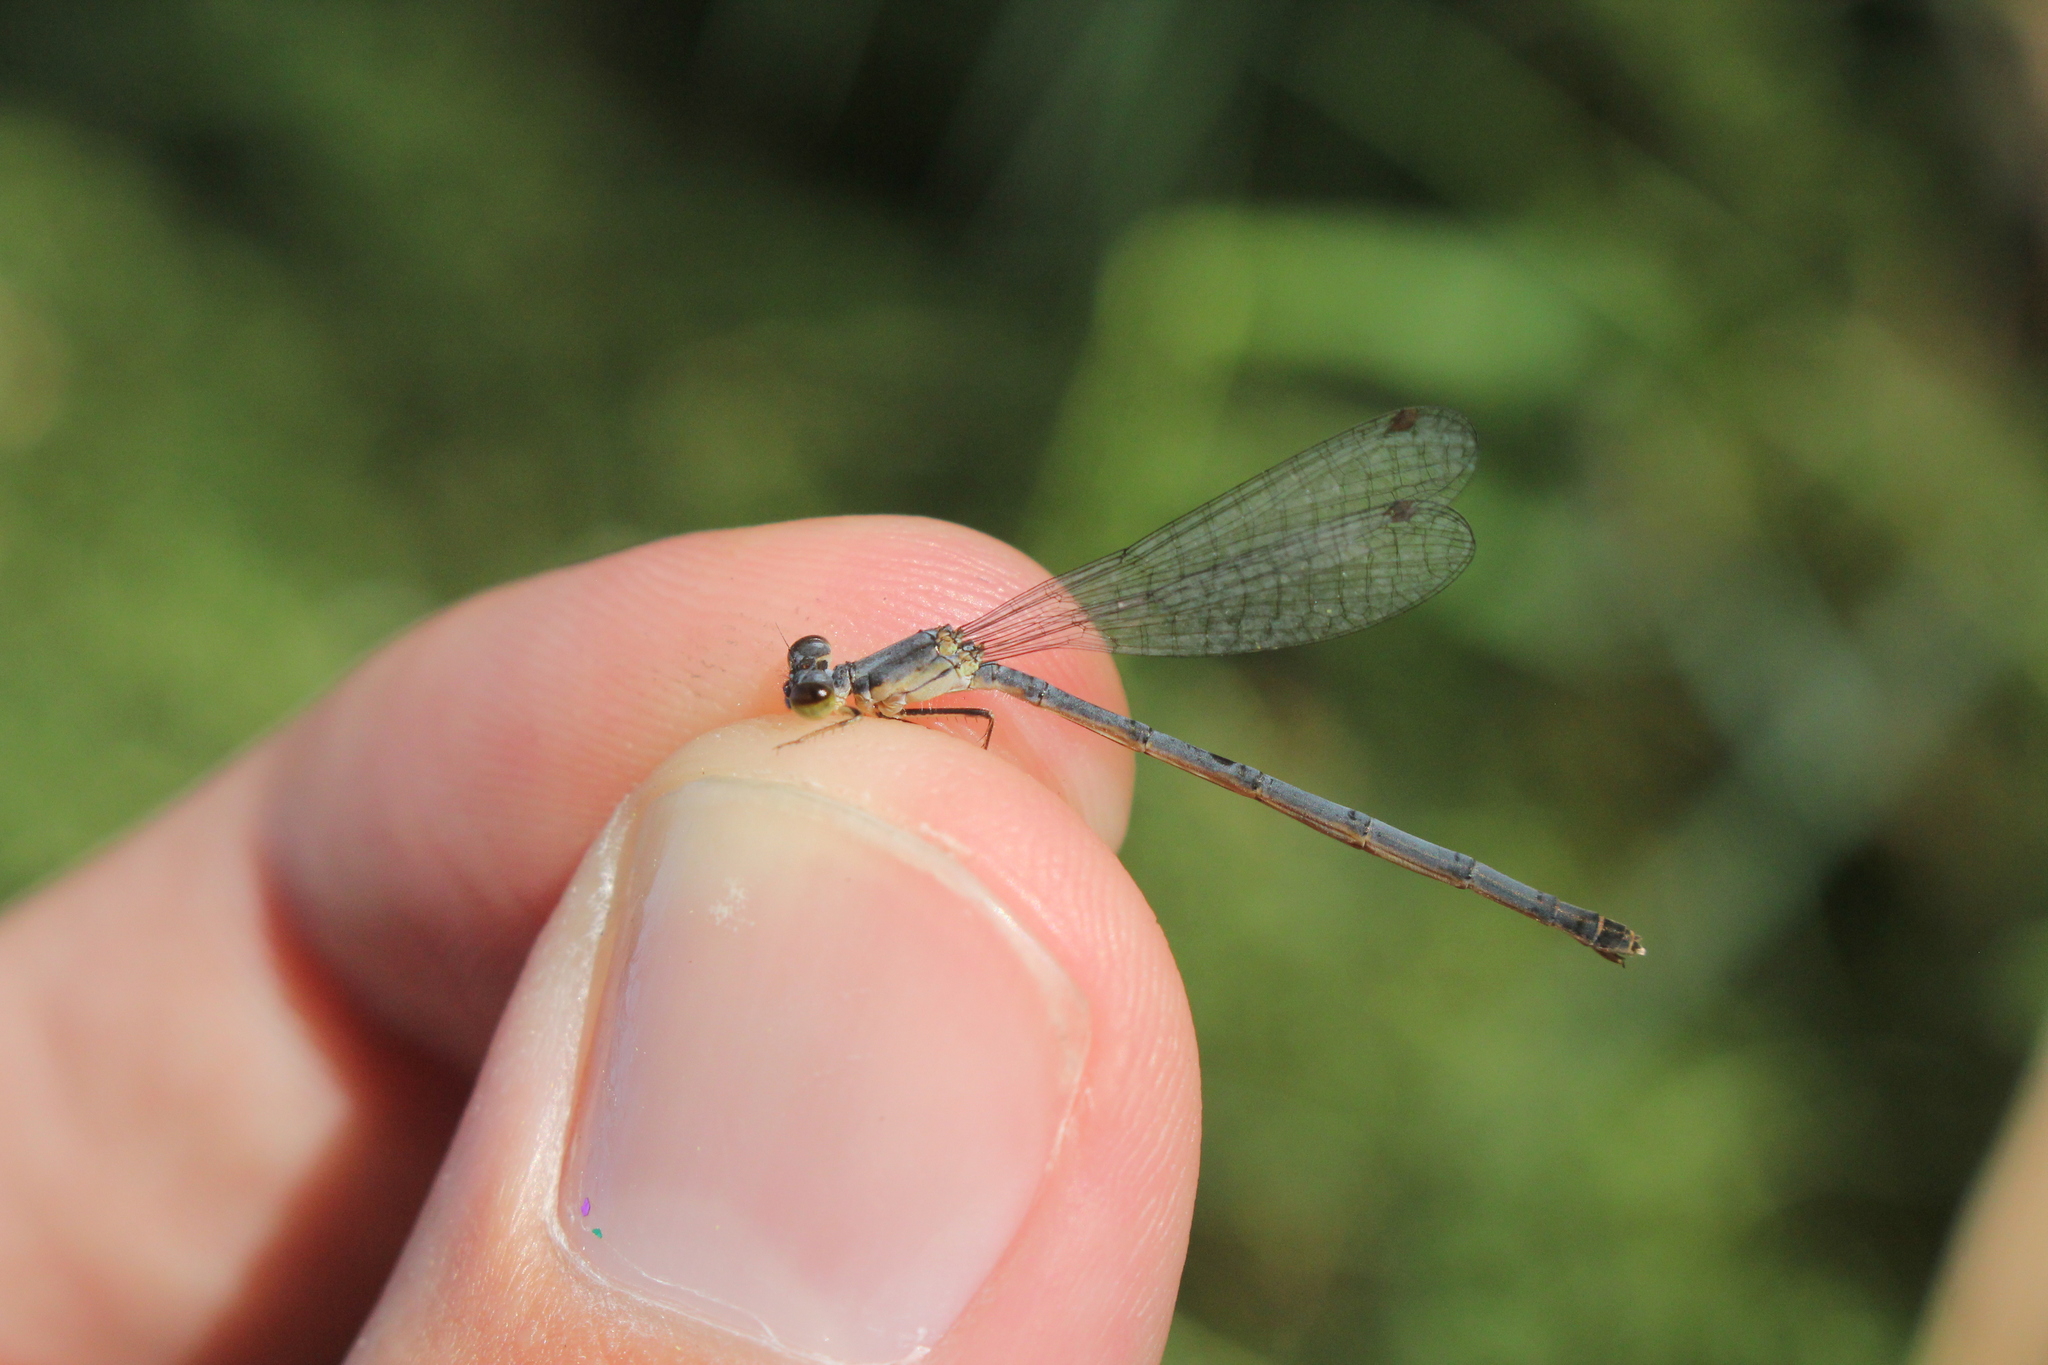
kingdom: Animalia
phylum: Arthropoda
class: Insecta
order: Odonata
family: Coenagrionidae
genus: Ischnura
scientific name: Ischnura posita
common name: Fragile forktail
